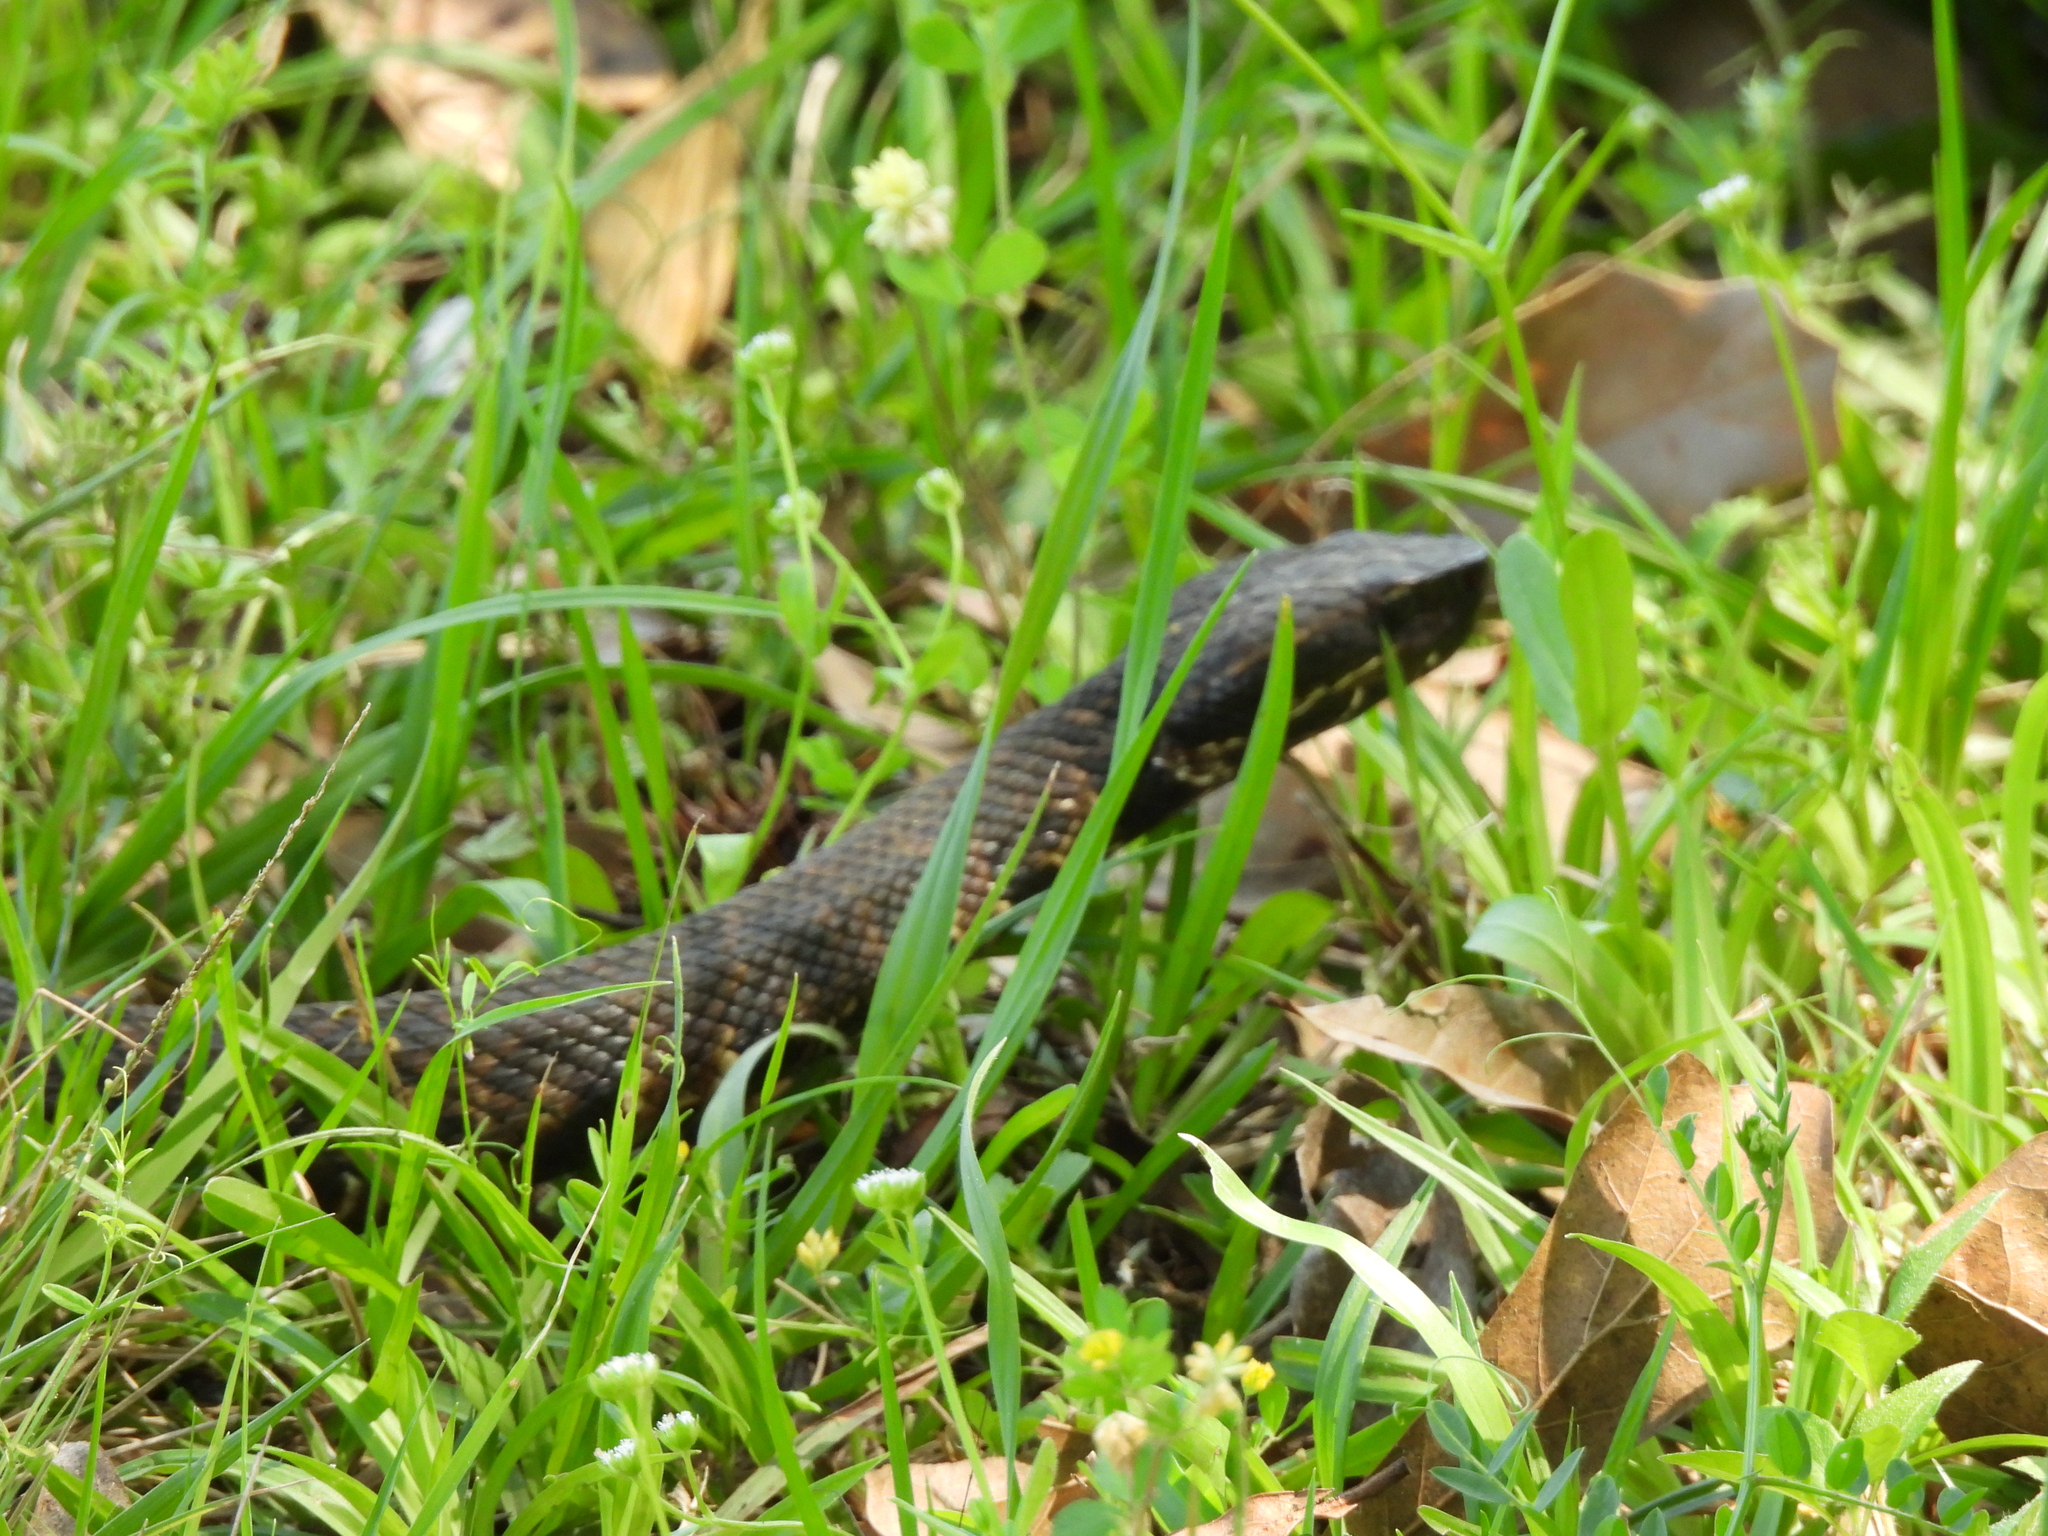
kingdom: Animalia
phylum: Chordata
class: Squamata
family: Viperidae
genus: Agkistrodon
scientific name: Agkistrodon piscivorus
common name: Cottonmouth
